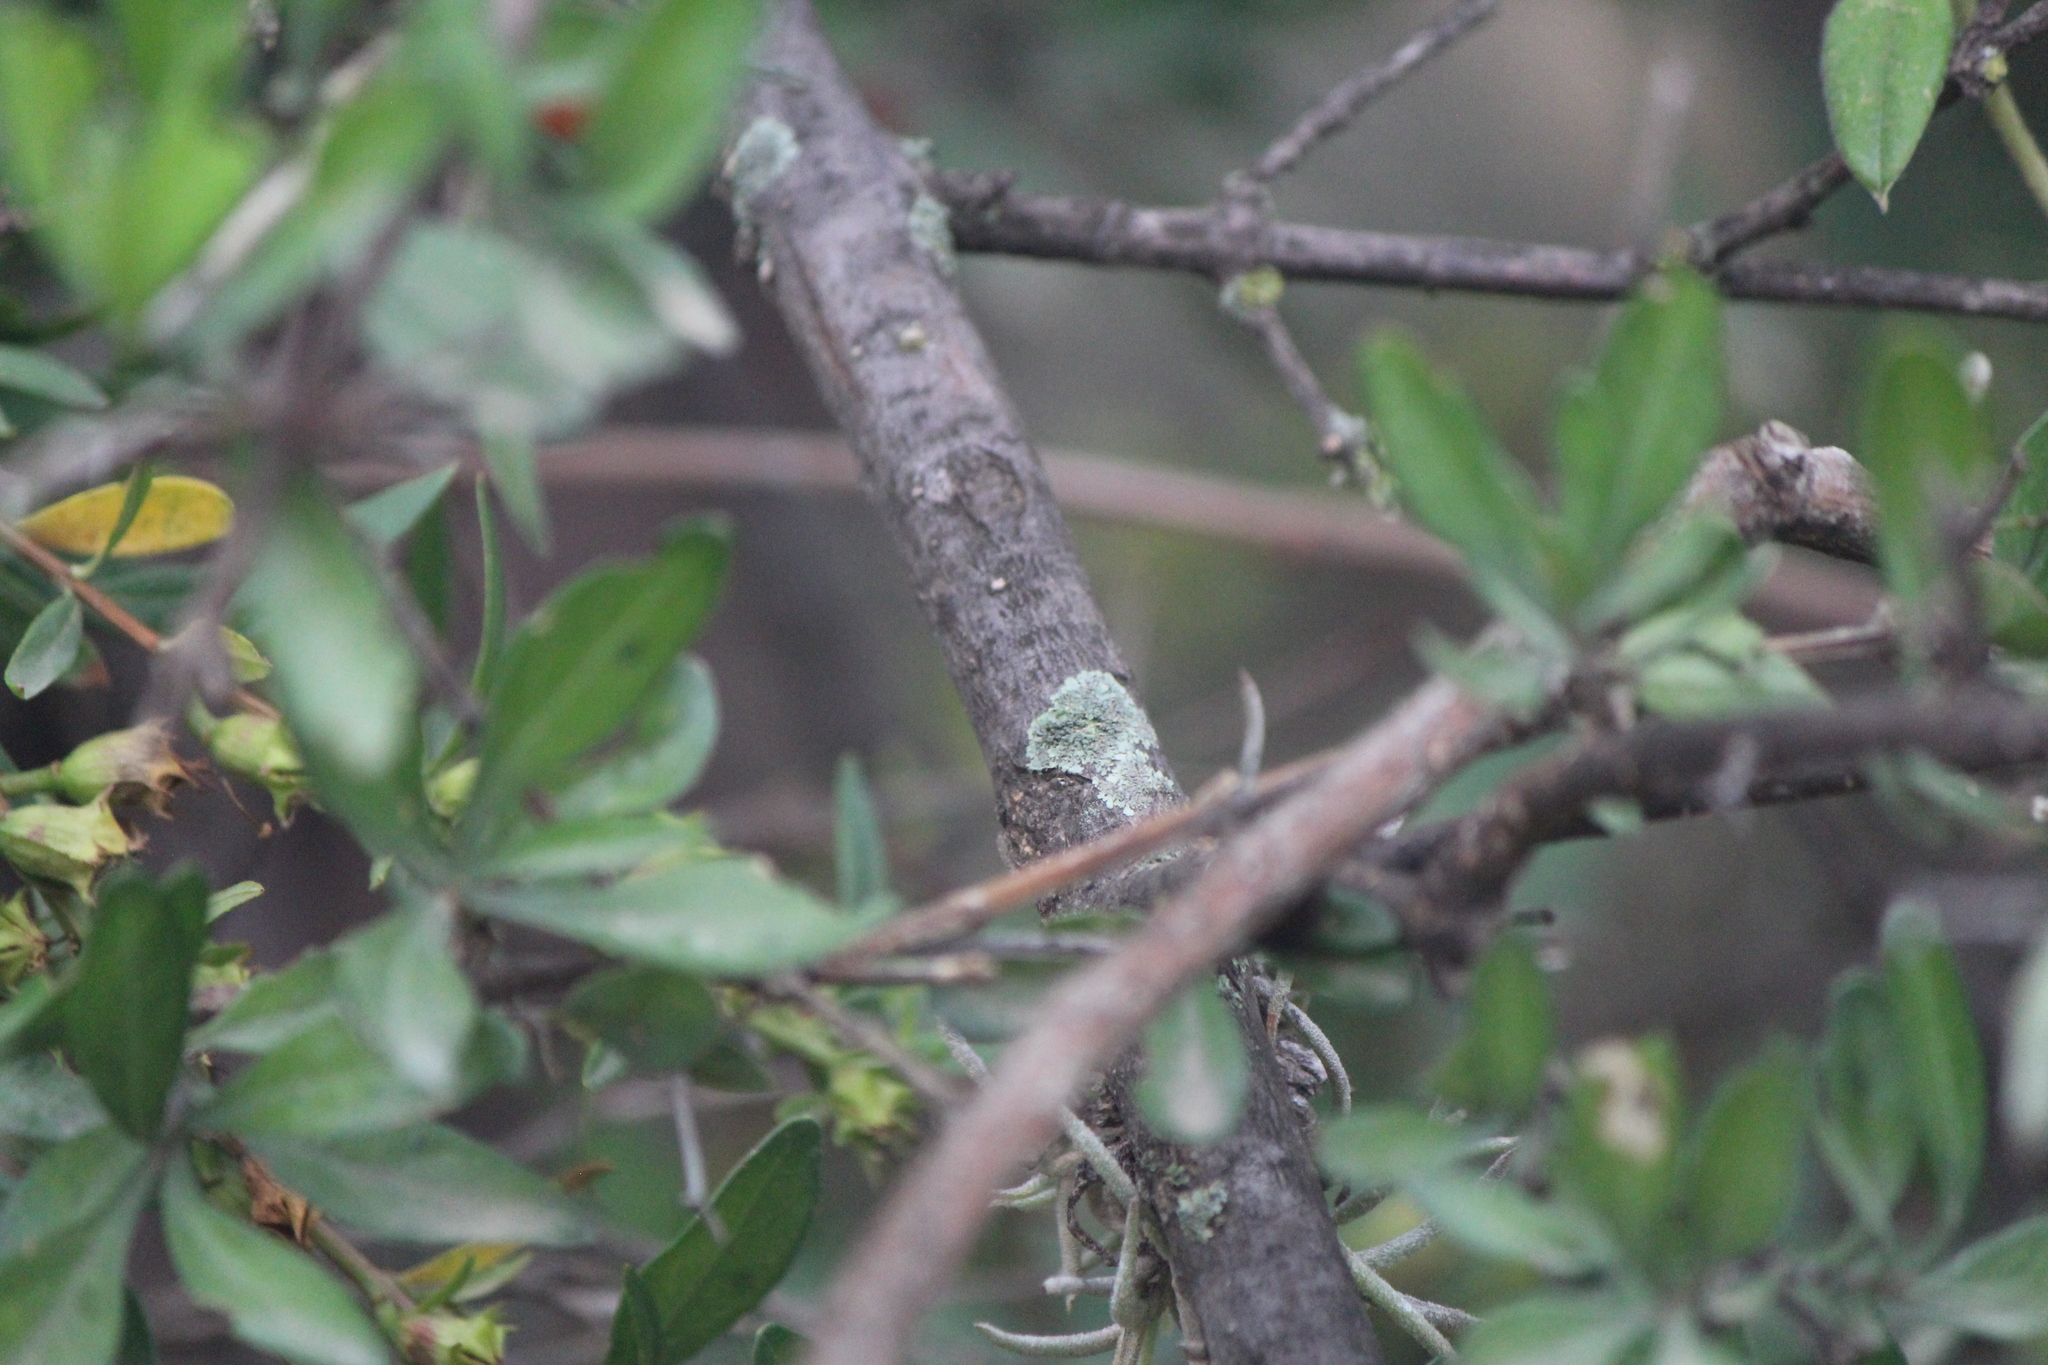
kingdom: Plantae
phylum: Tracheophyta
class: Magnoliopsida
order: Lamiales
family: Verbenaceae
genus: Citharexylum
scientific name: Citharexylum racemosum
